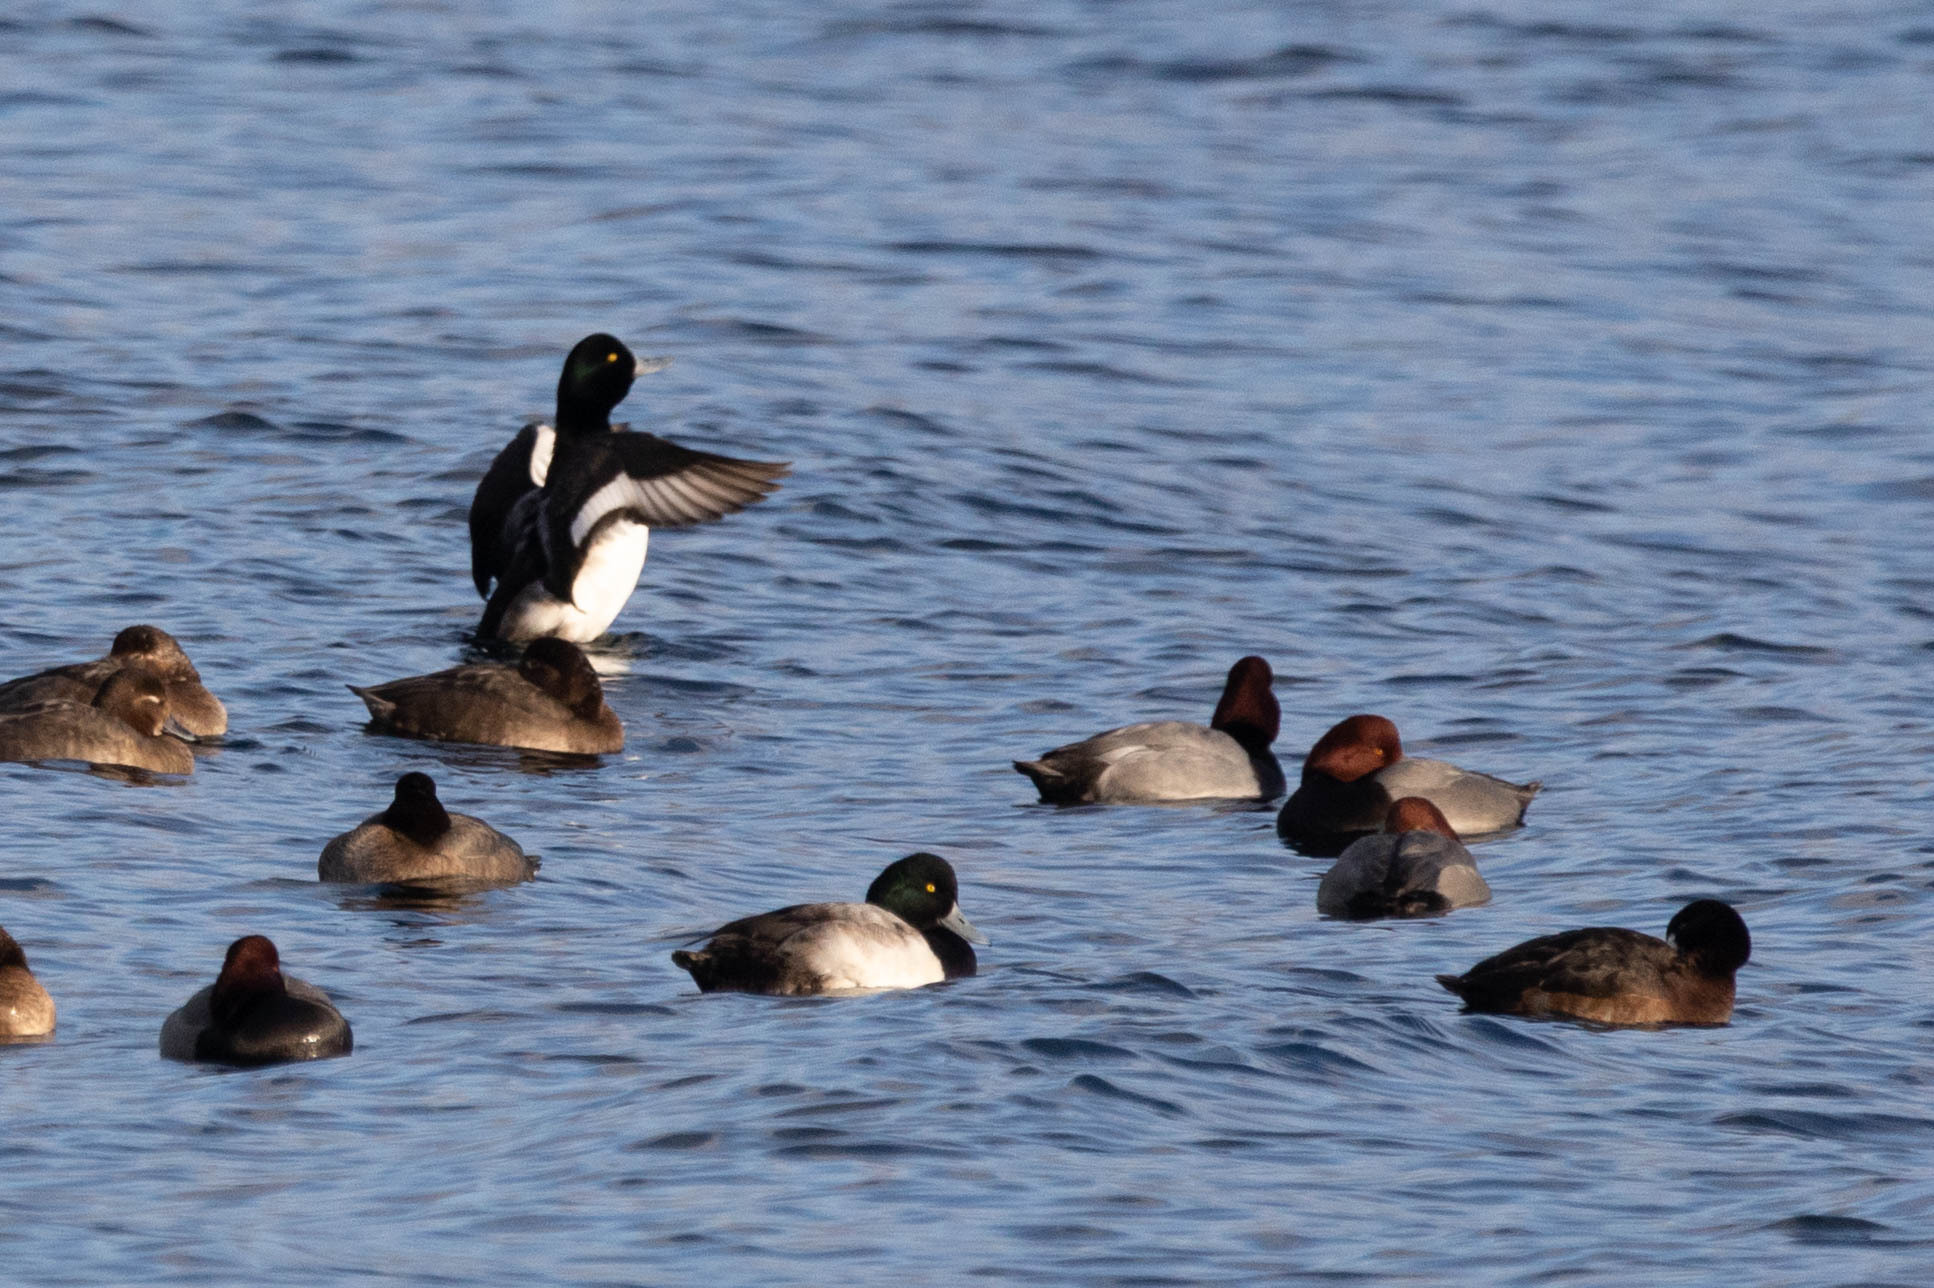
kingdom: Animalia
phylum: Chordata
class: Aves
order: Anseriformes
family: Anatidae
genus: Aythya
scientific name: Aythya marila
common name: Greater scaup
